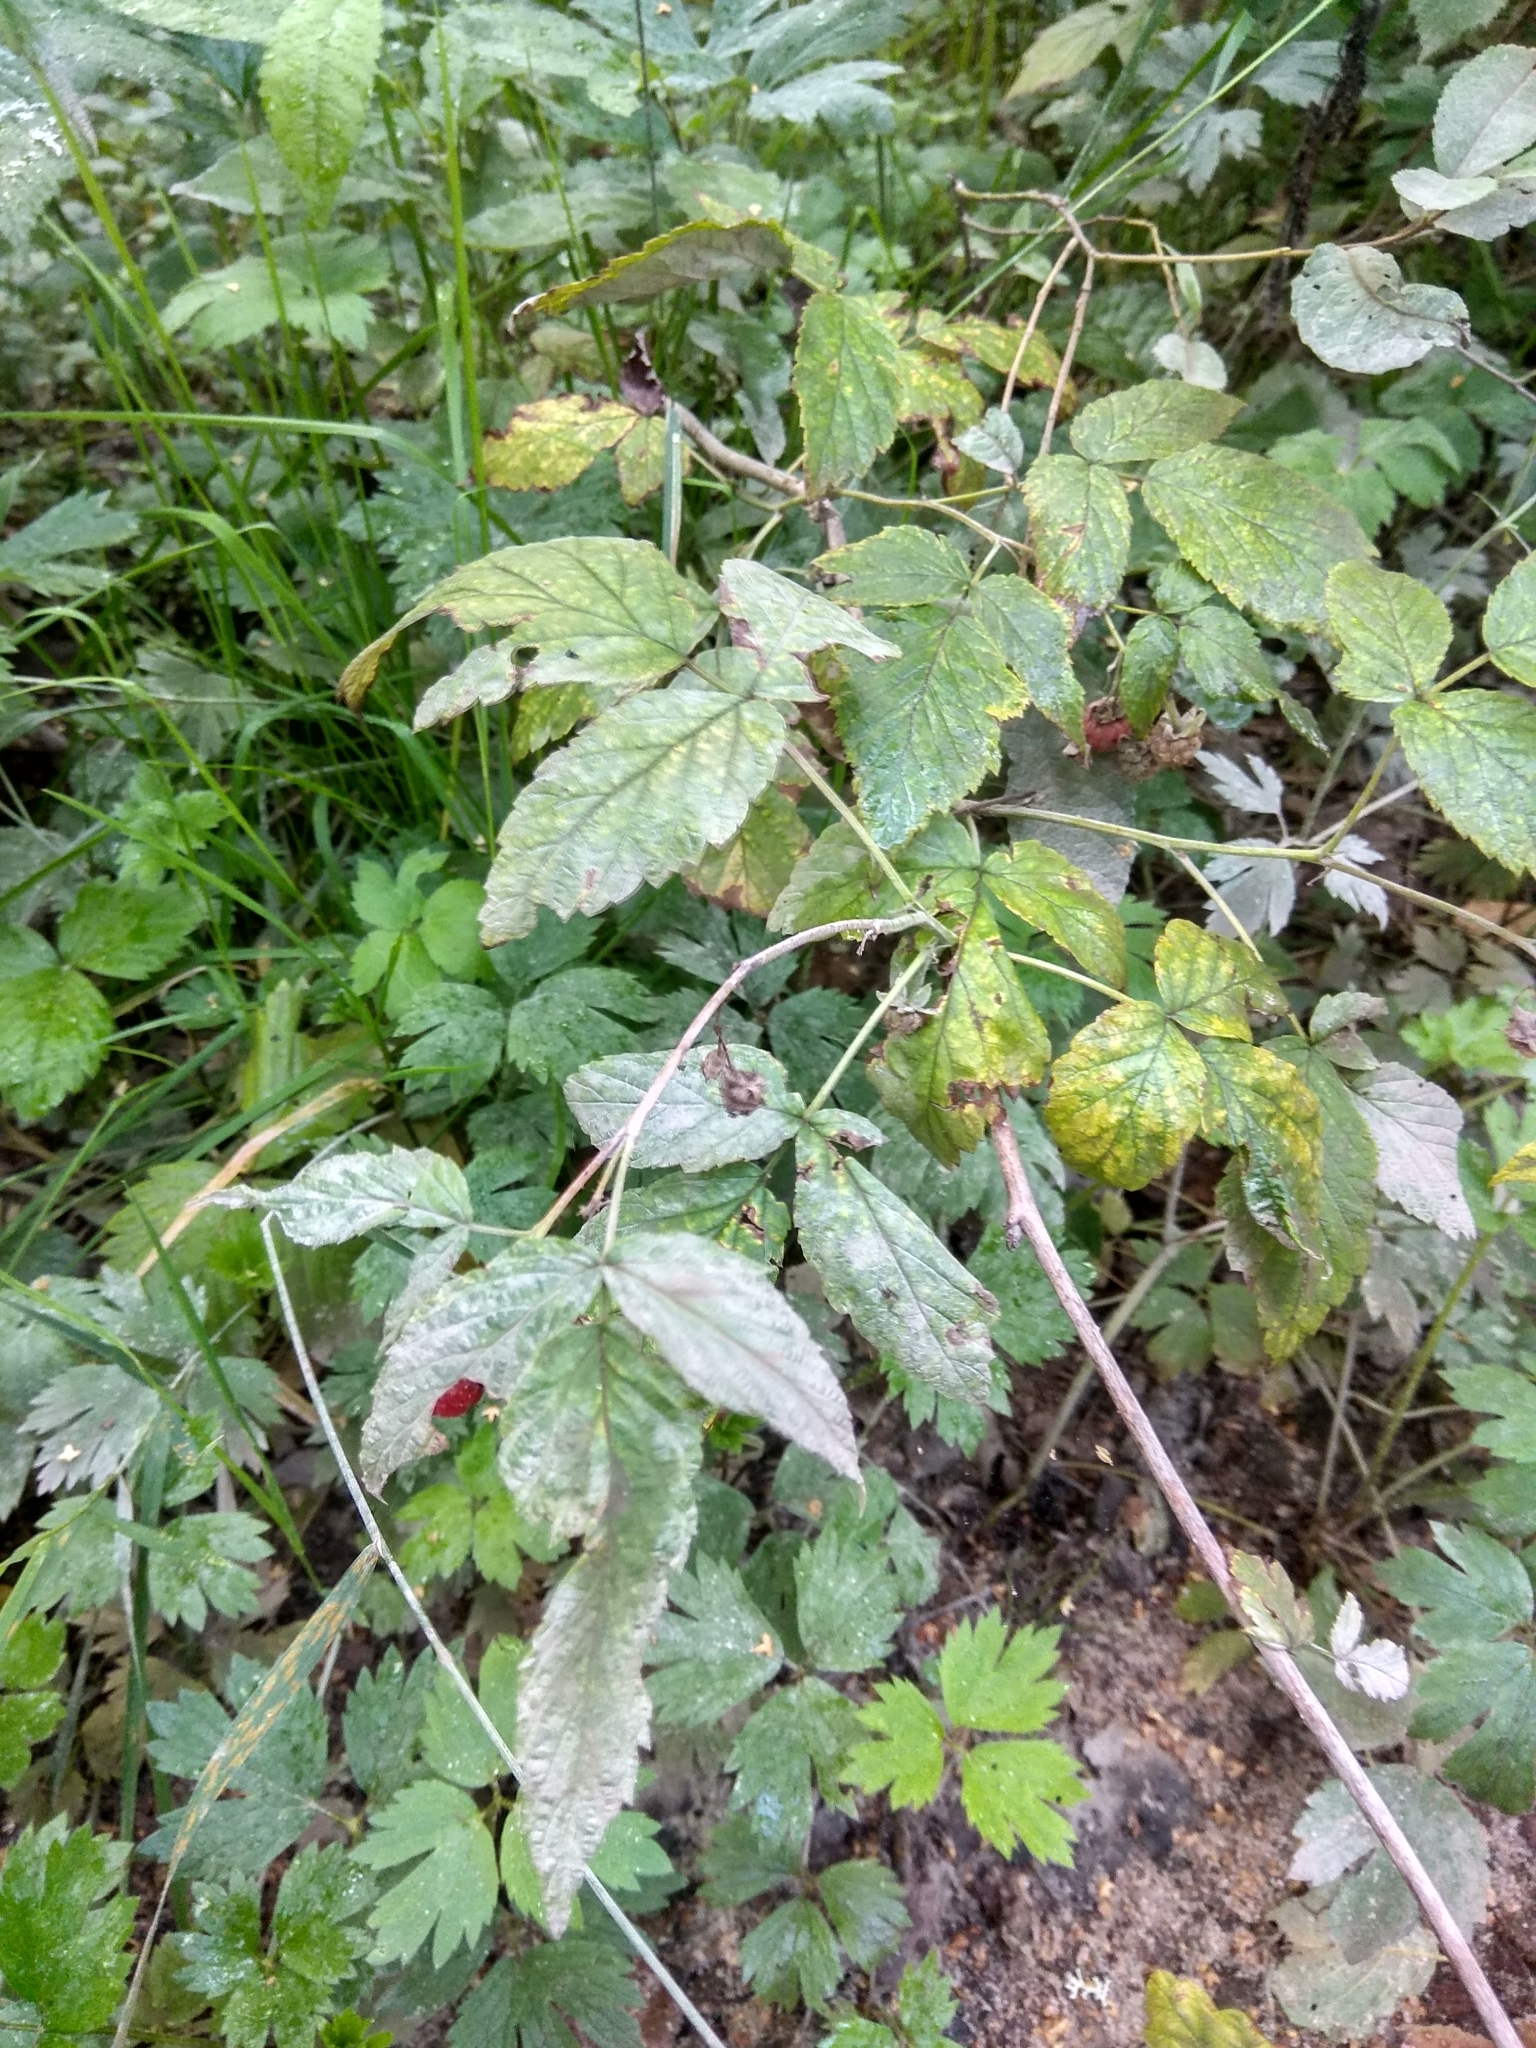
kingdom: Plantae
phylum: Tracheophyta
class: Magnoliopsida
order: Rosales
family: Rosaceae
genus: Rubus
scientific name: Rubus idaeus
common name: Raspberry
